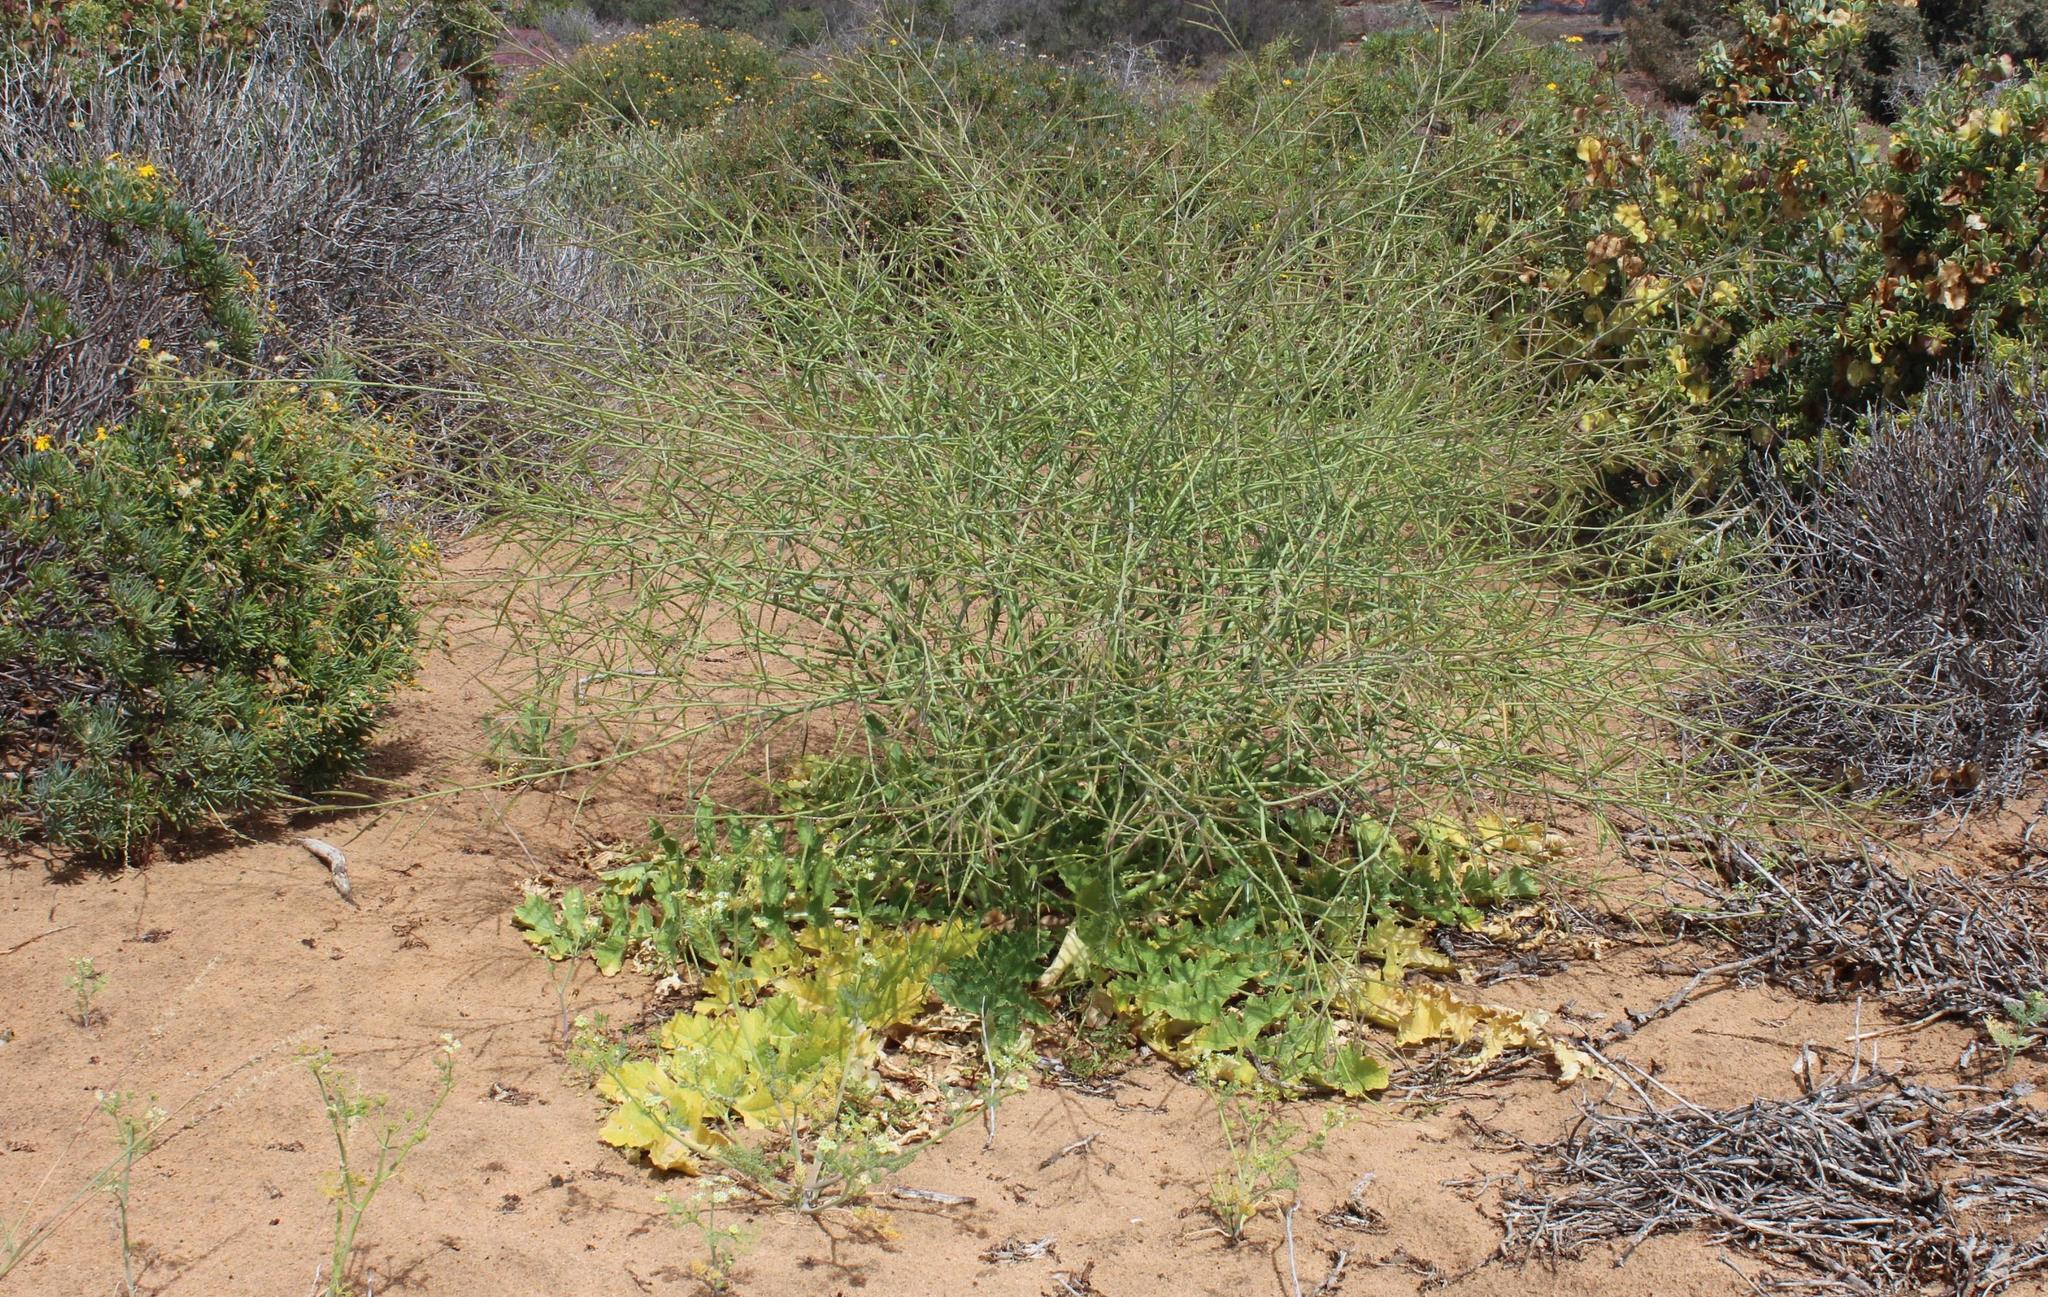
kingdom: Plantae
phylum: Tracheophyta
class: Magnoliopsida
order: Brassicales
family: Brassicaceae
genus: Brassica
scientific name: Brassica tournefortii
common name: Pale cabbage
